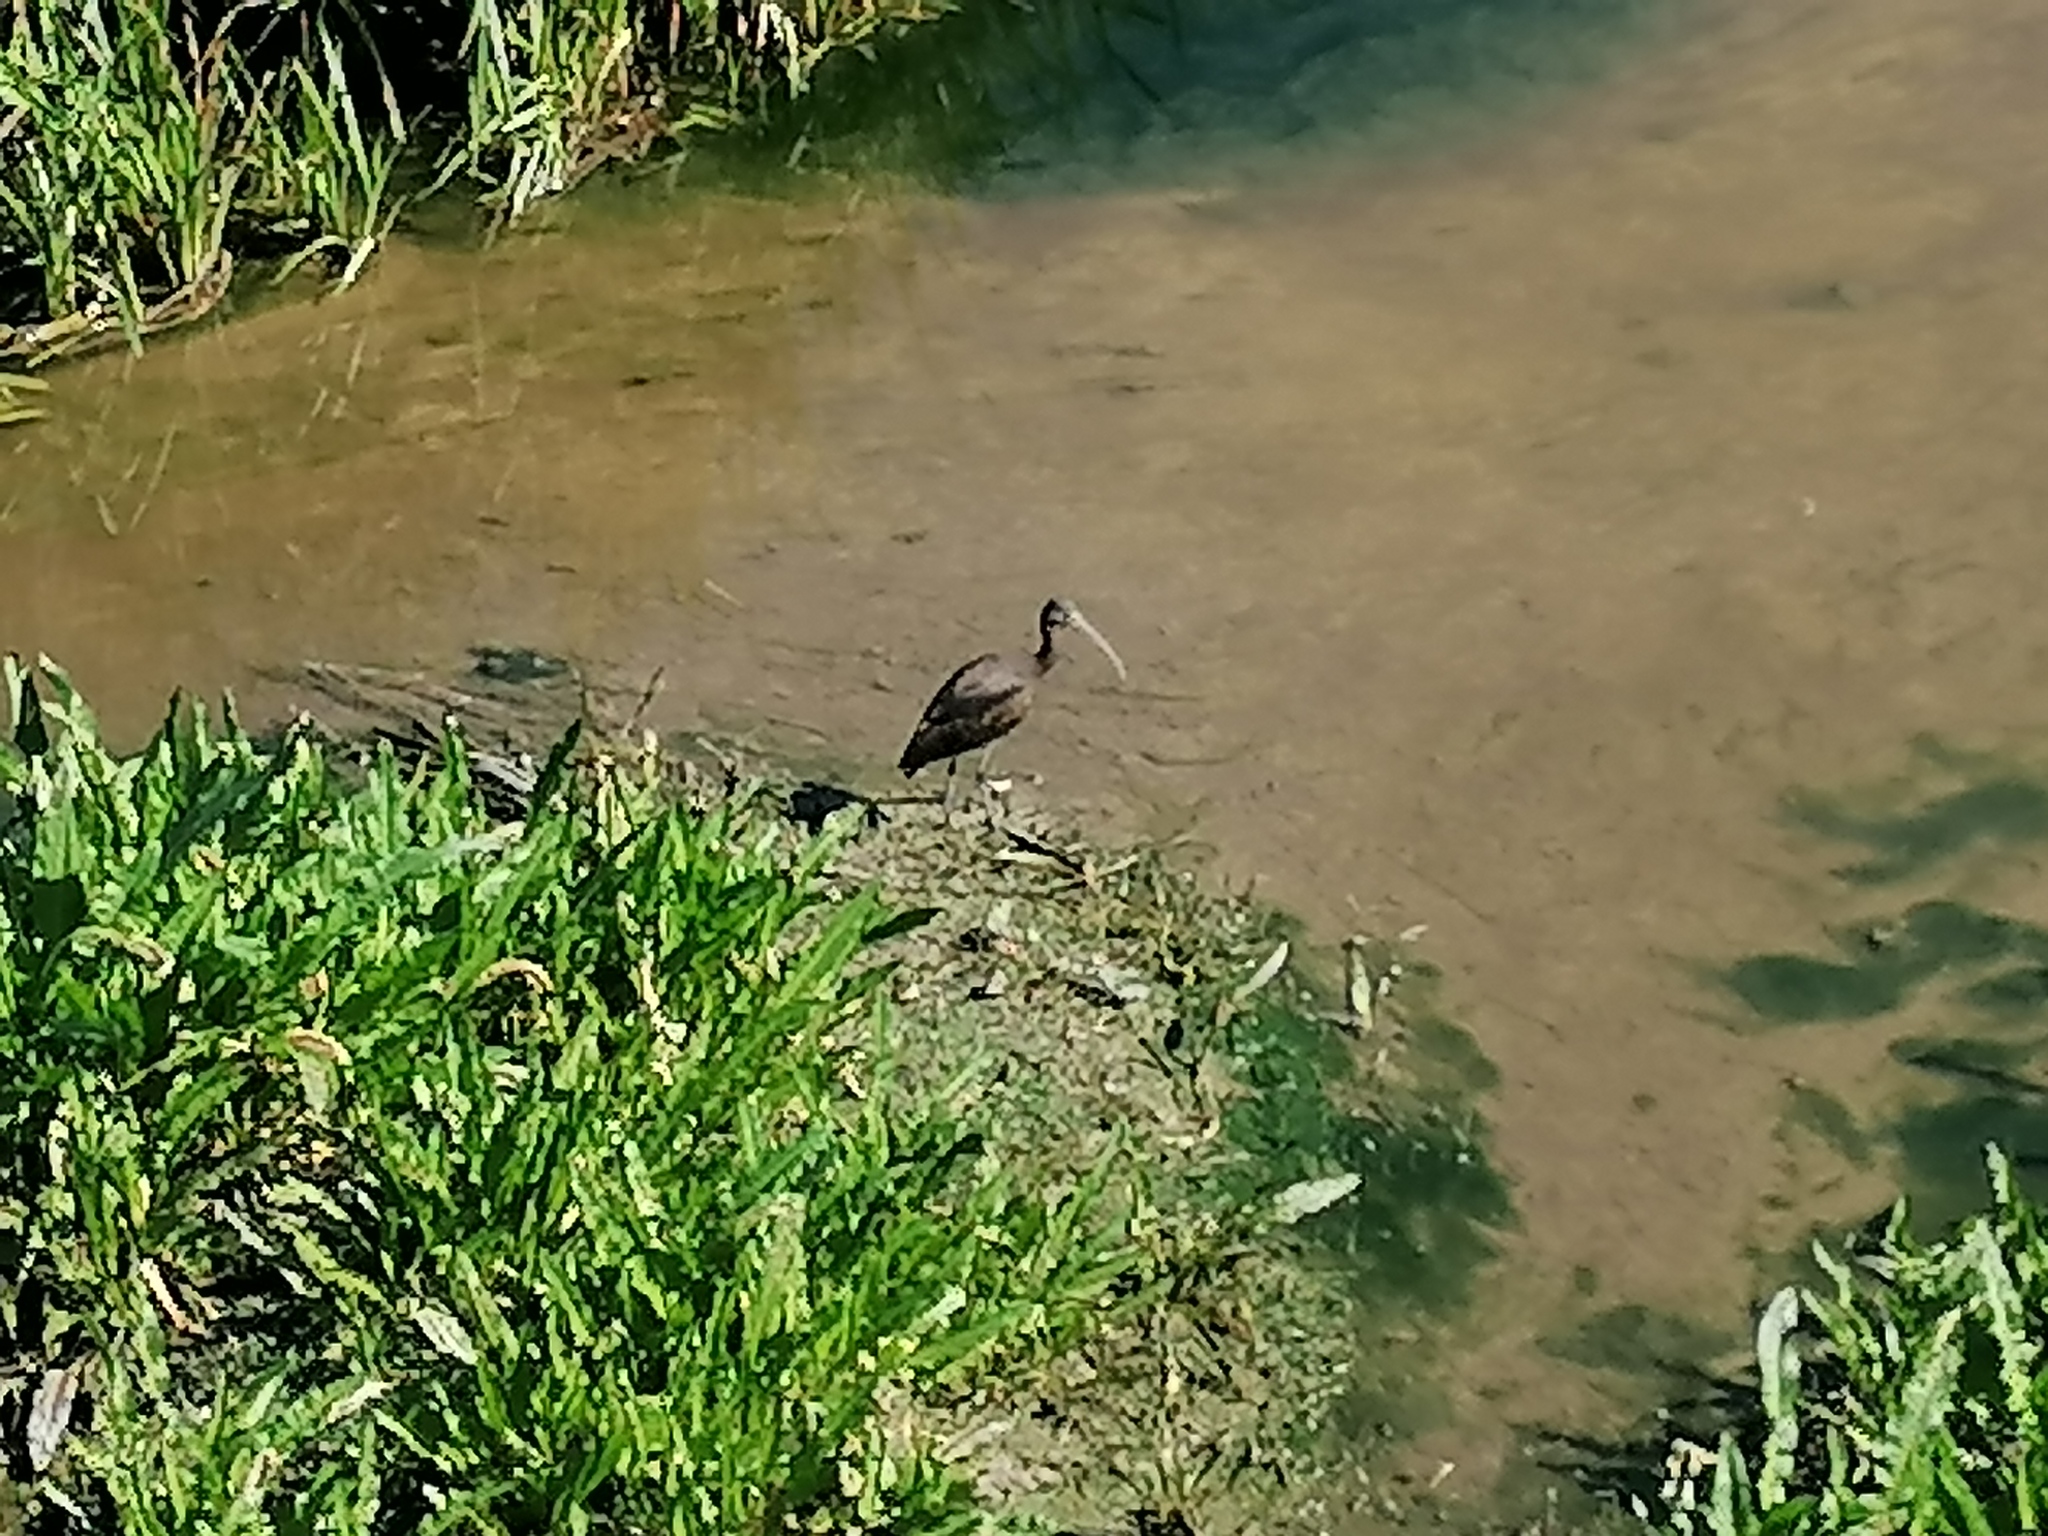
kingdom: Animalia
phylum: Chordata
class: Aves
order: Pelecaniformes
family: Threskiornithidae
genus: Plegadis
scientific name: Plegadis falcinellus
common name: Glossy ibis
